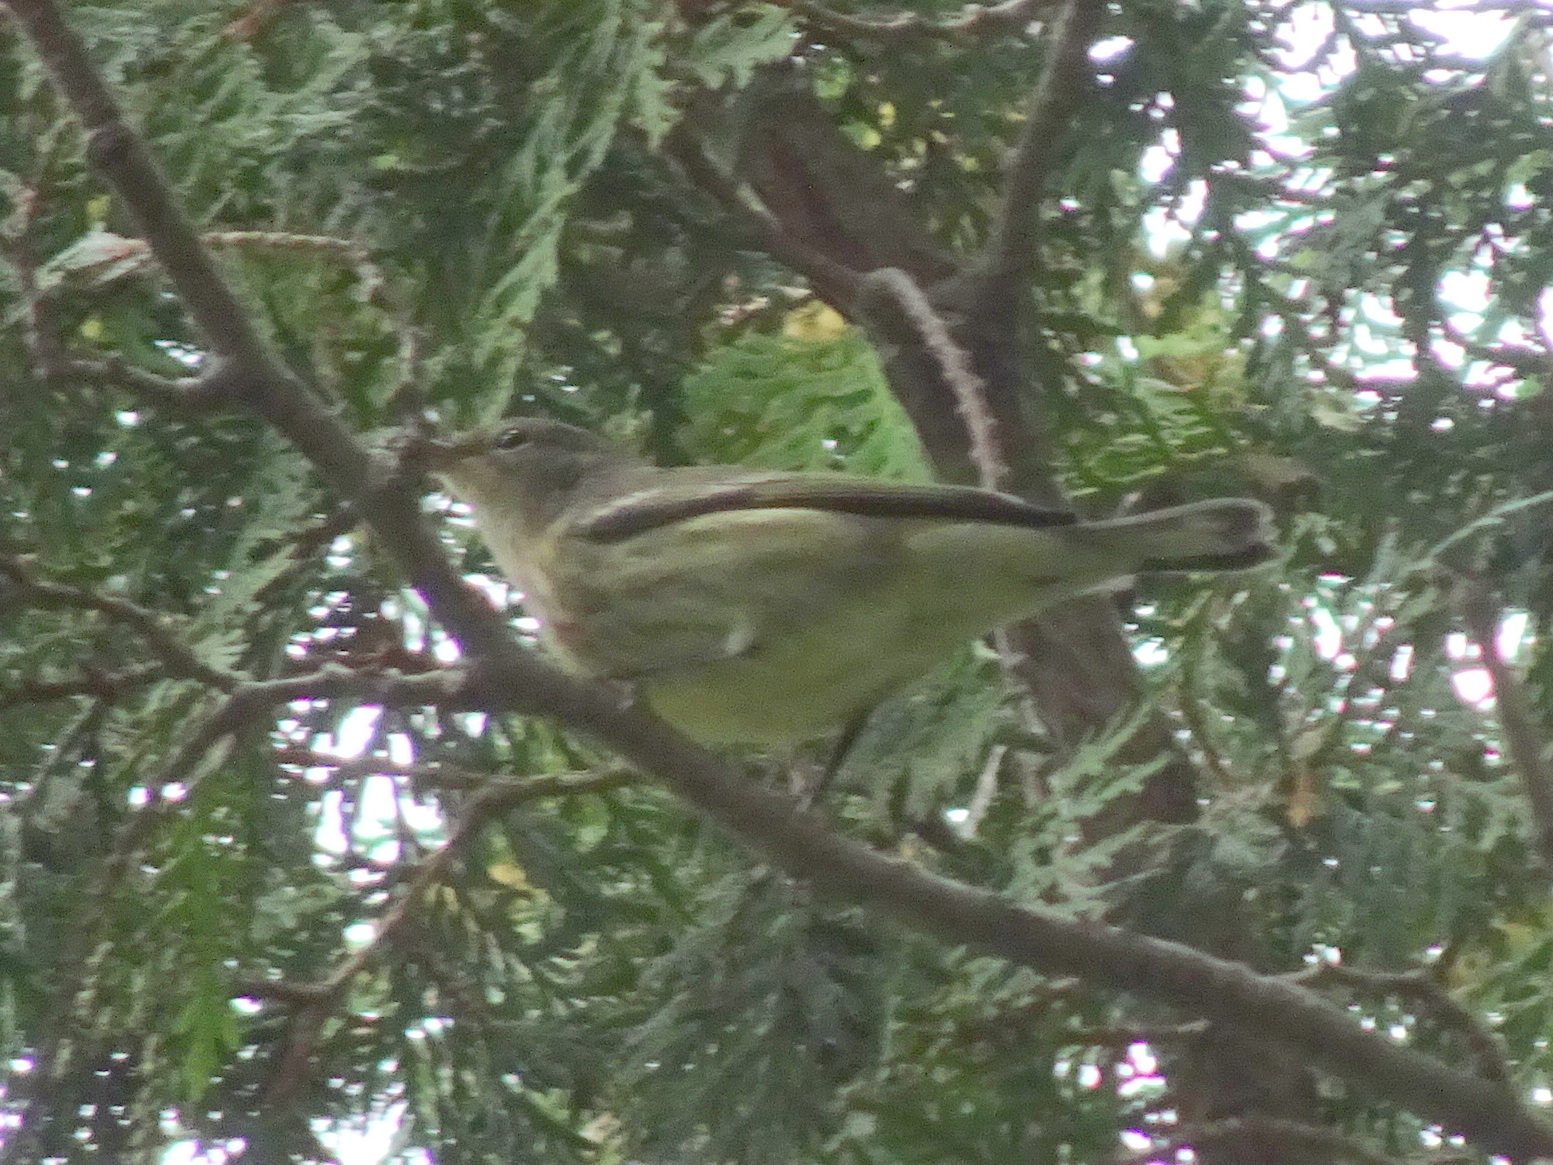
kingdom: Animalia
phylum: Chordata
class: Aves
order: Passeriformes
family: Parulidae
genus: Setophaga
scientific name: Setophaga tigrina
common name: Cape may warbler
